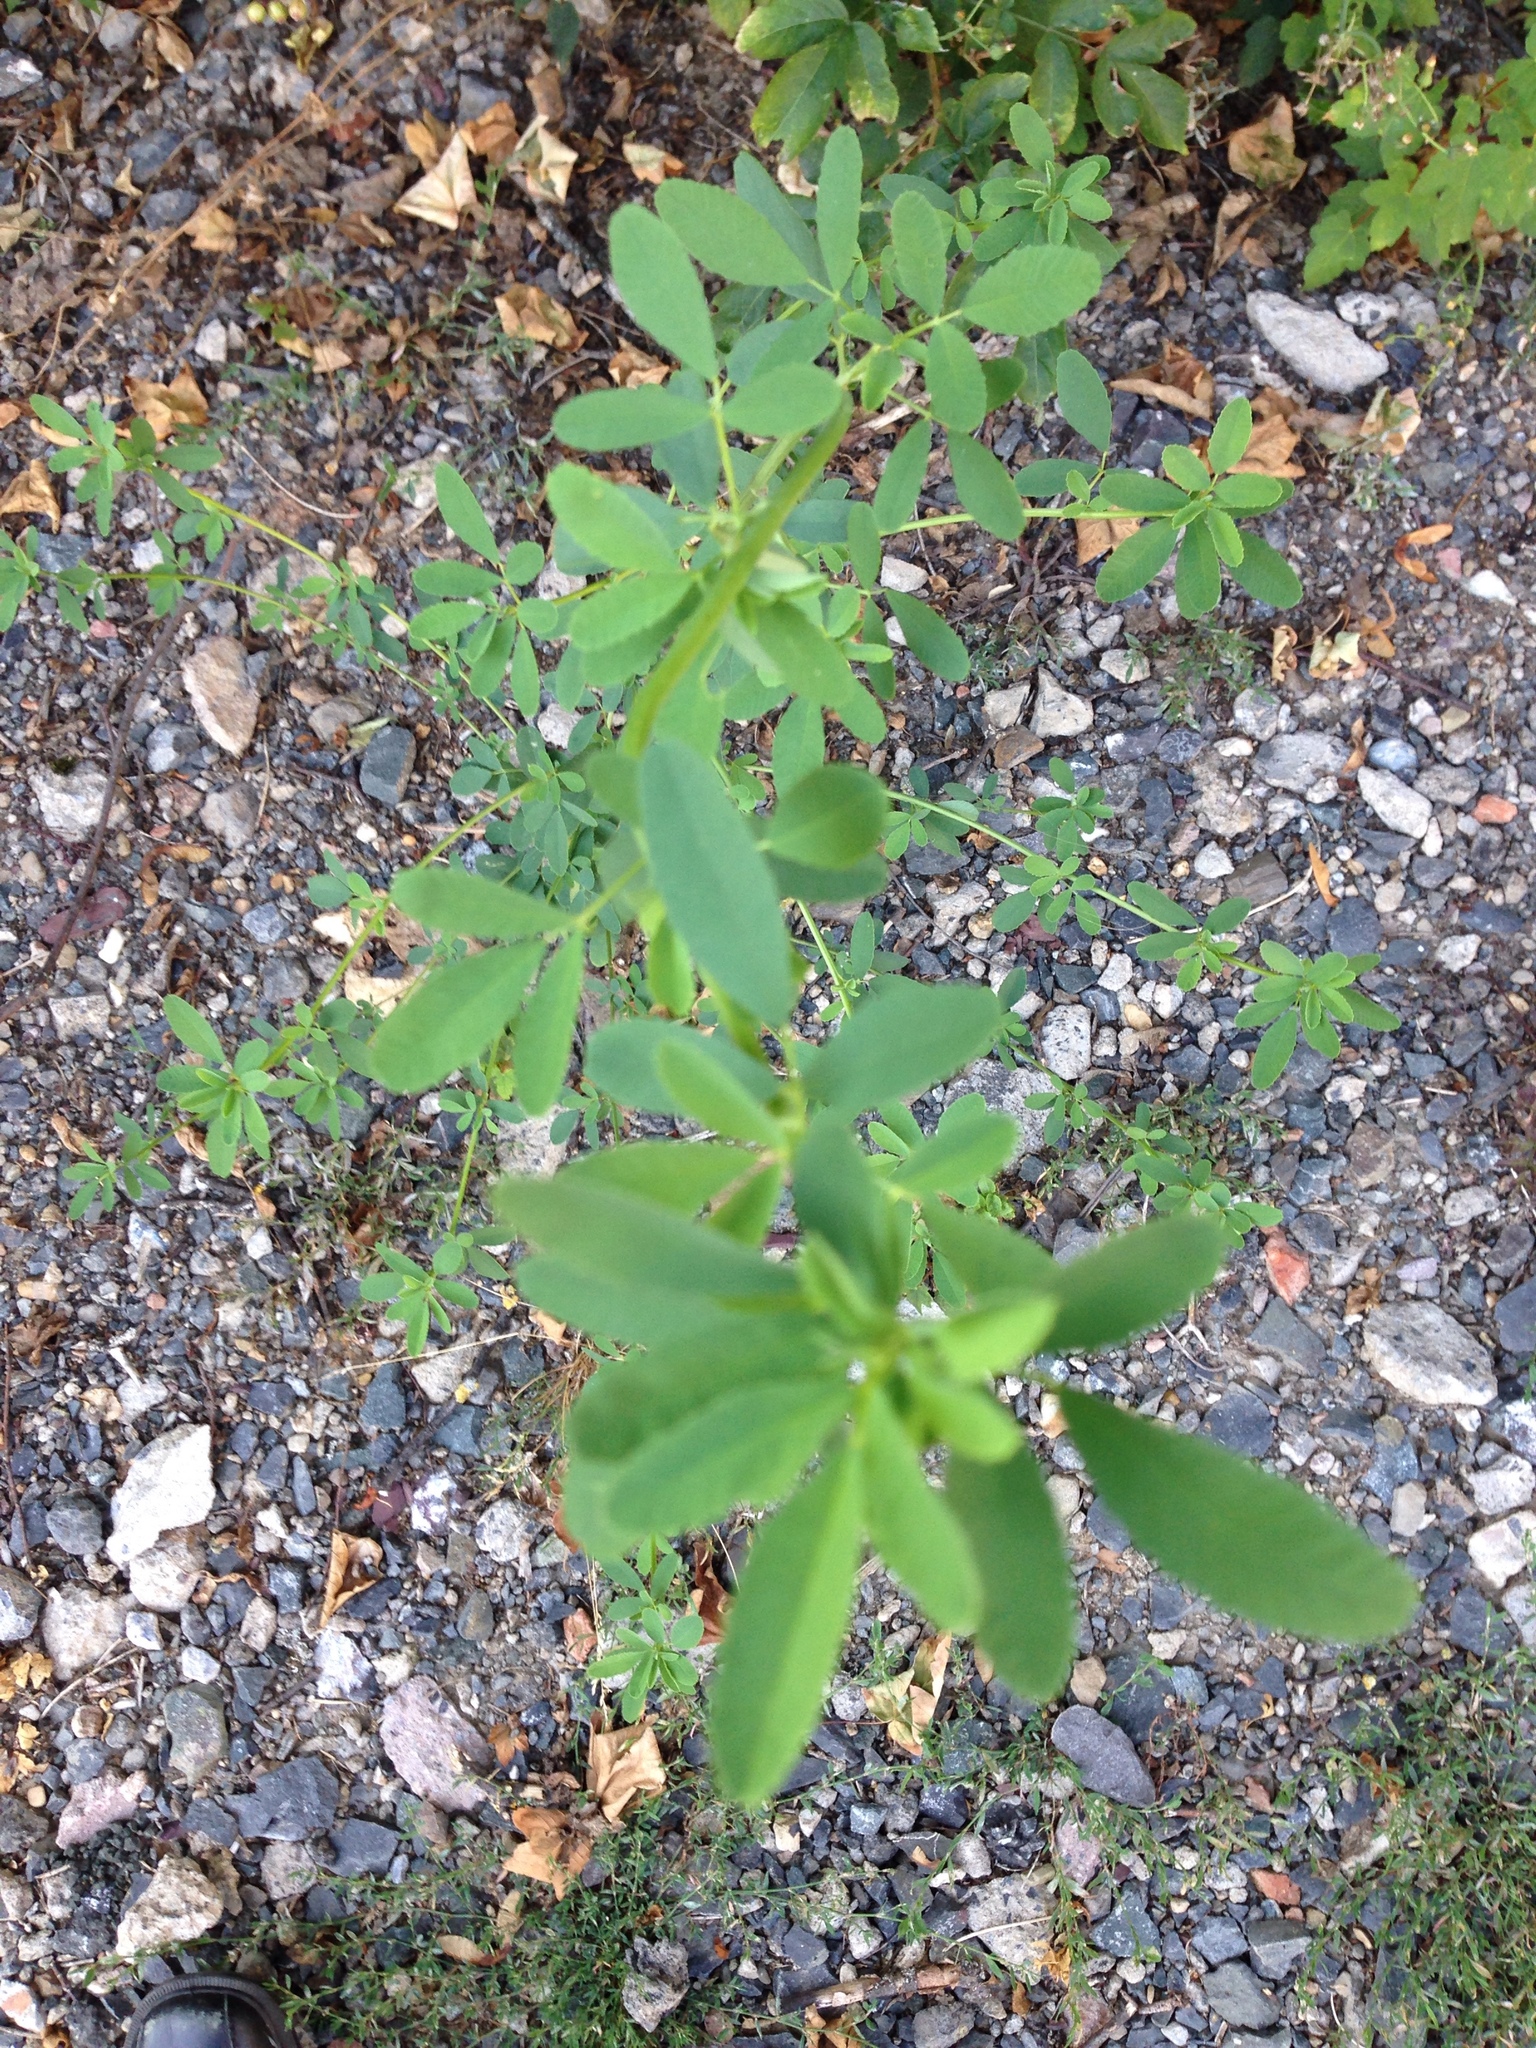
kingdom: Plantae
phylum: Tracheophyta
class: Magnoliopsida
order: Fabales
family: Fabaceae
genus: Melilotus
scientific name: Melilotus albus
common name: White melilot
